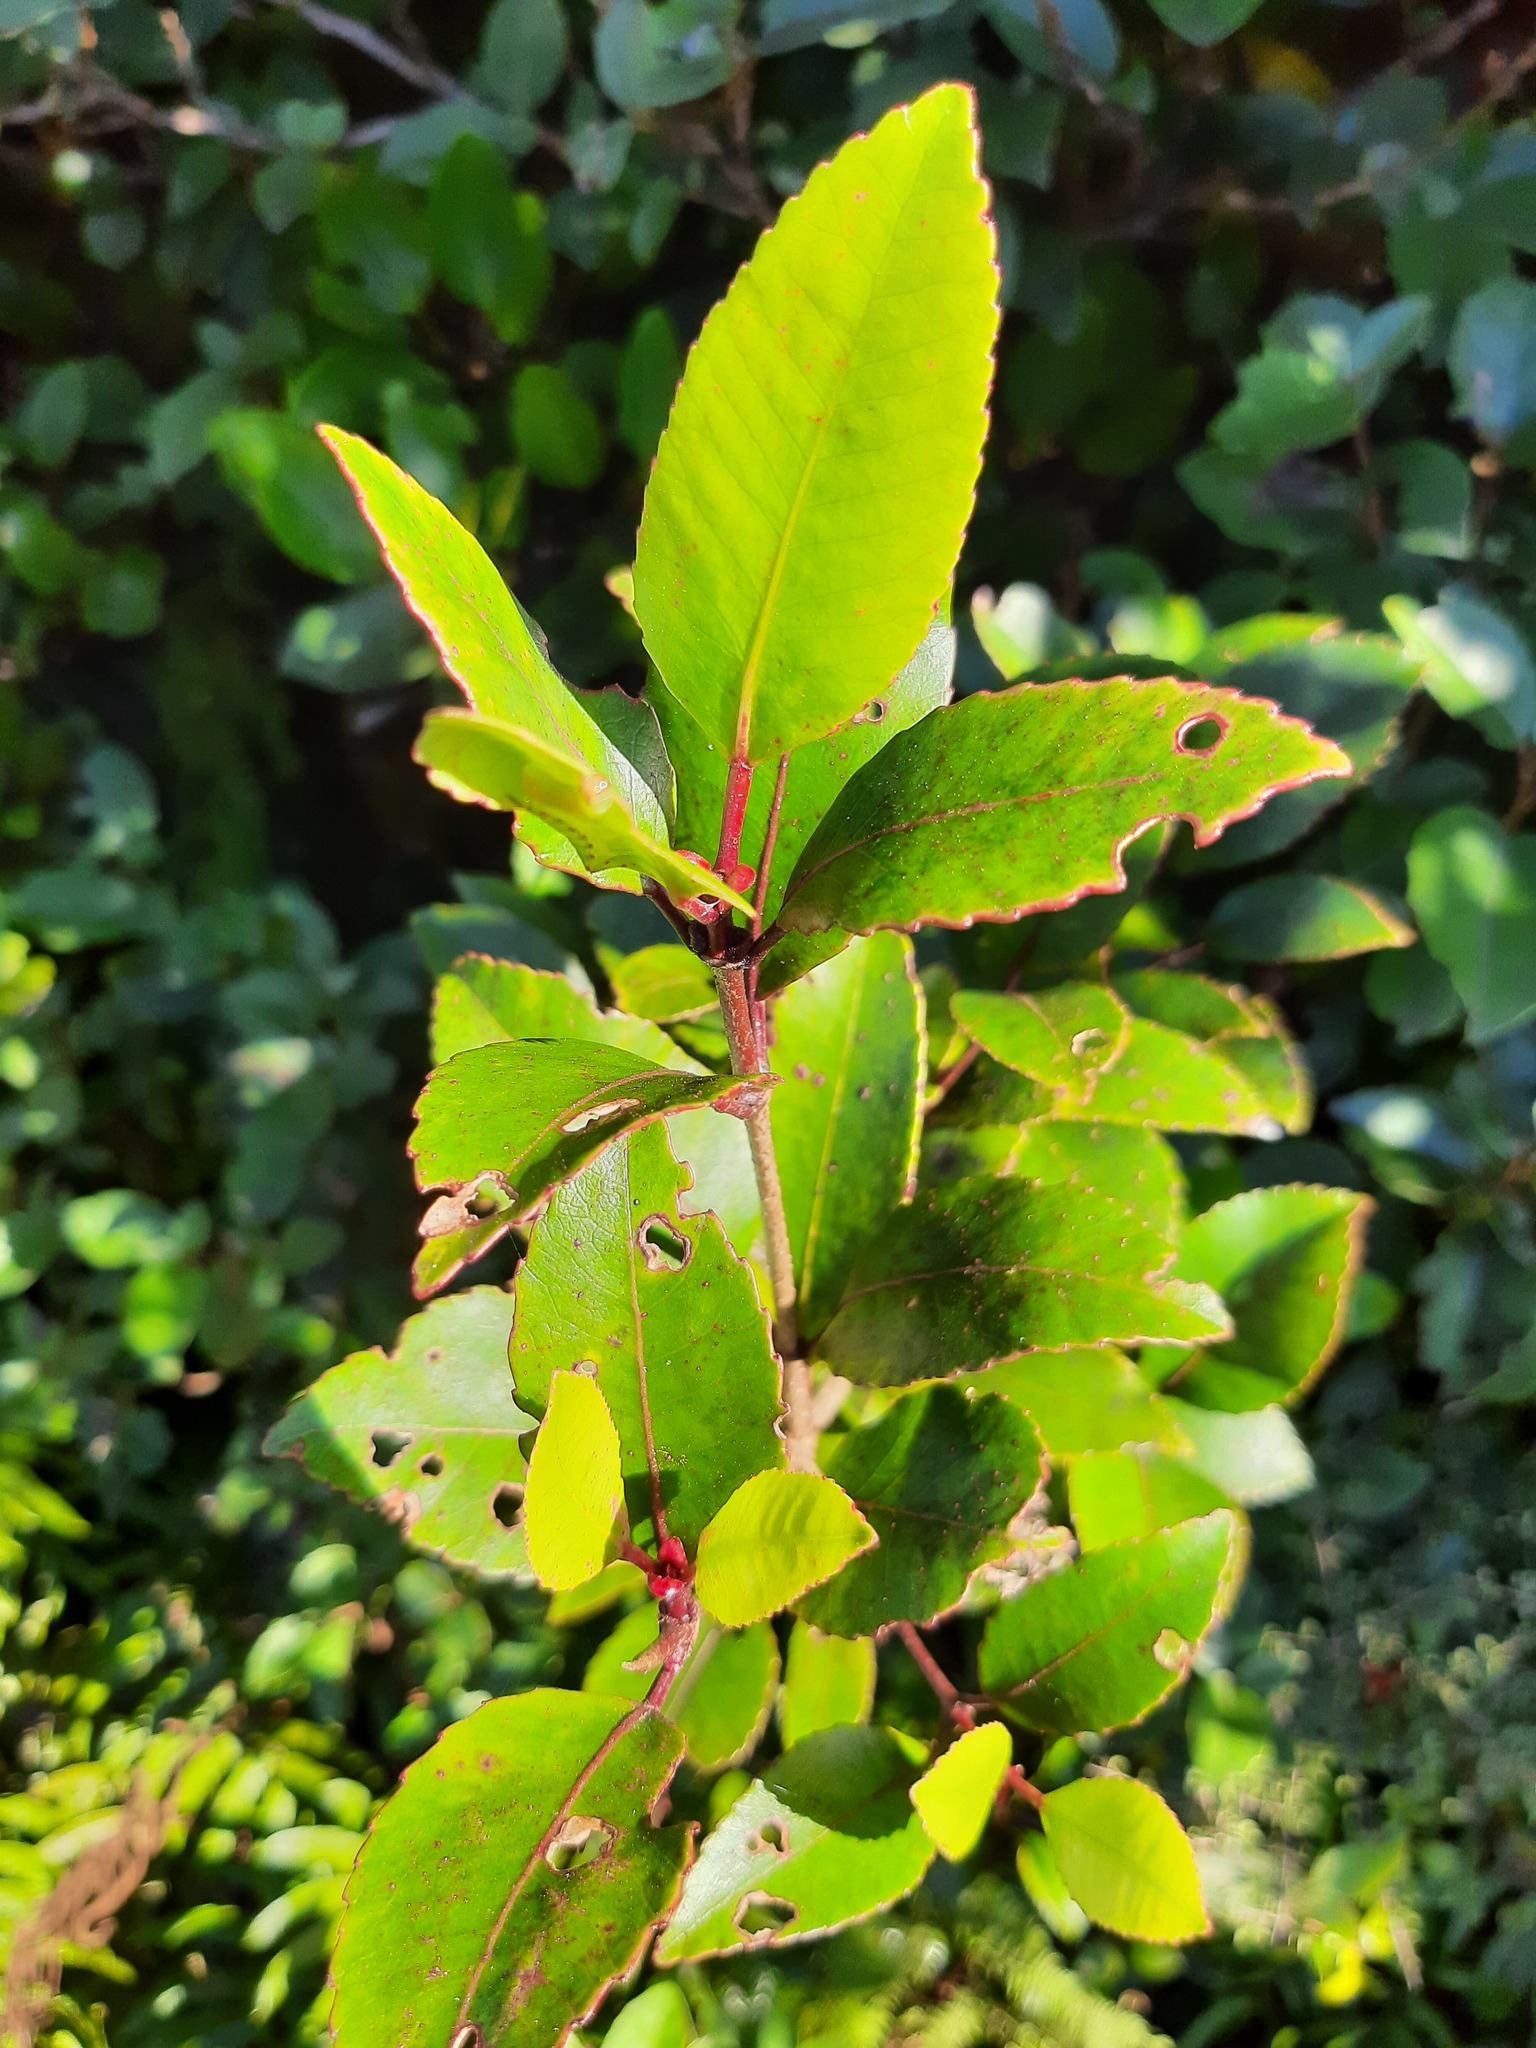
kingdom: Plantae
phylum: Tracheophyta
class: Magnoliopsida
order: Oxalidales
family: Cunoniaceae
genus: Pterophylla
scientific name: Pterophylla racemosa
